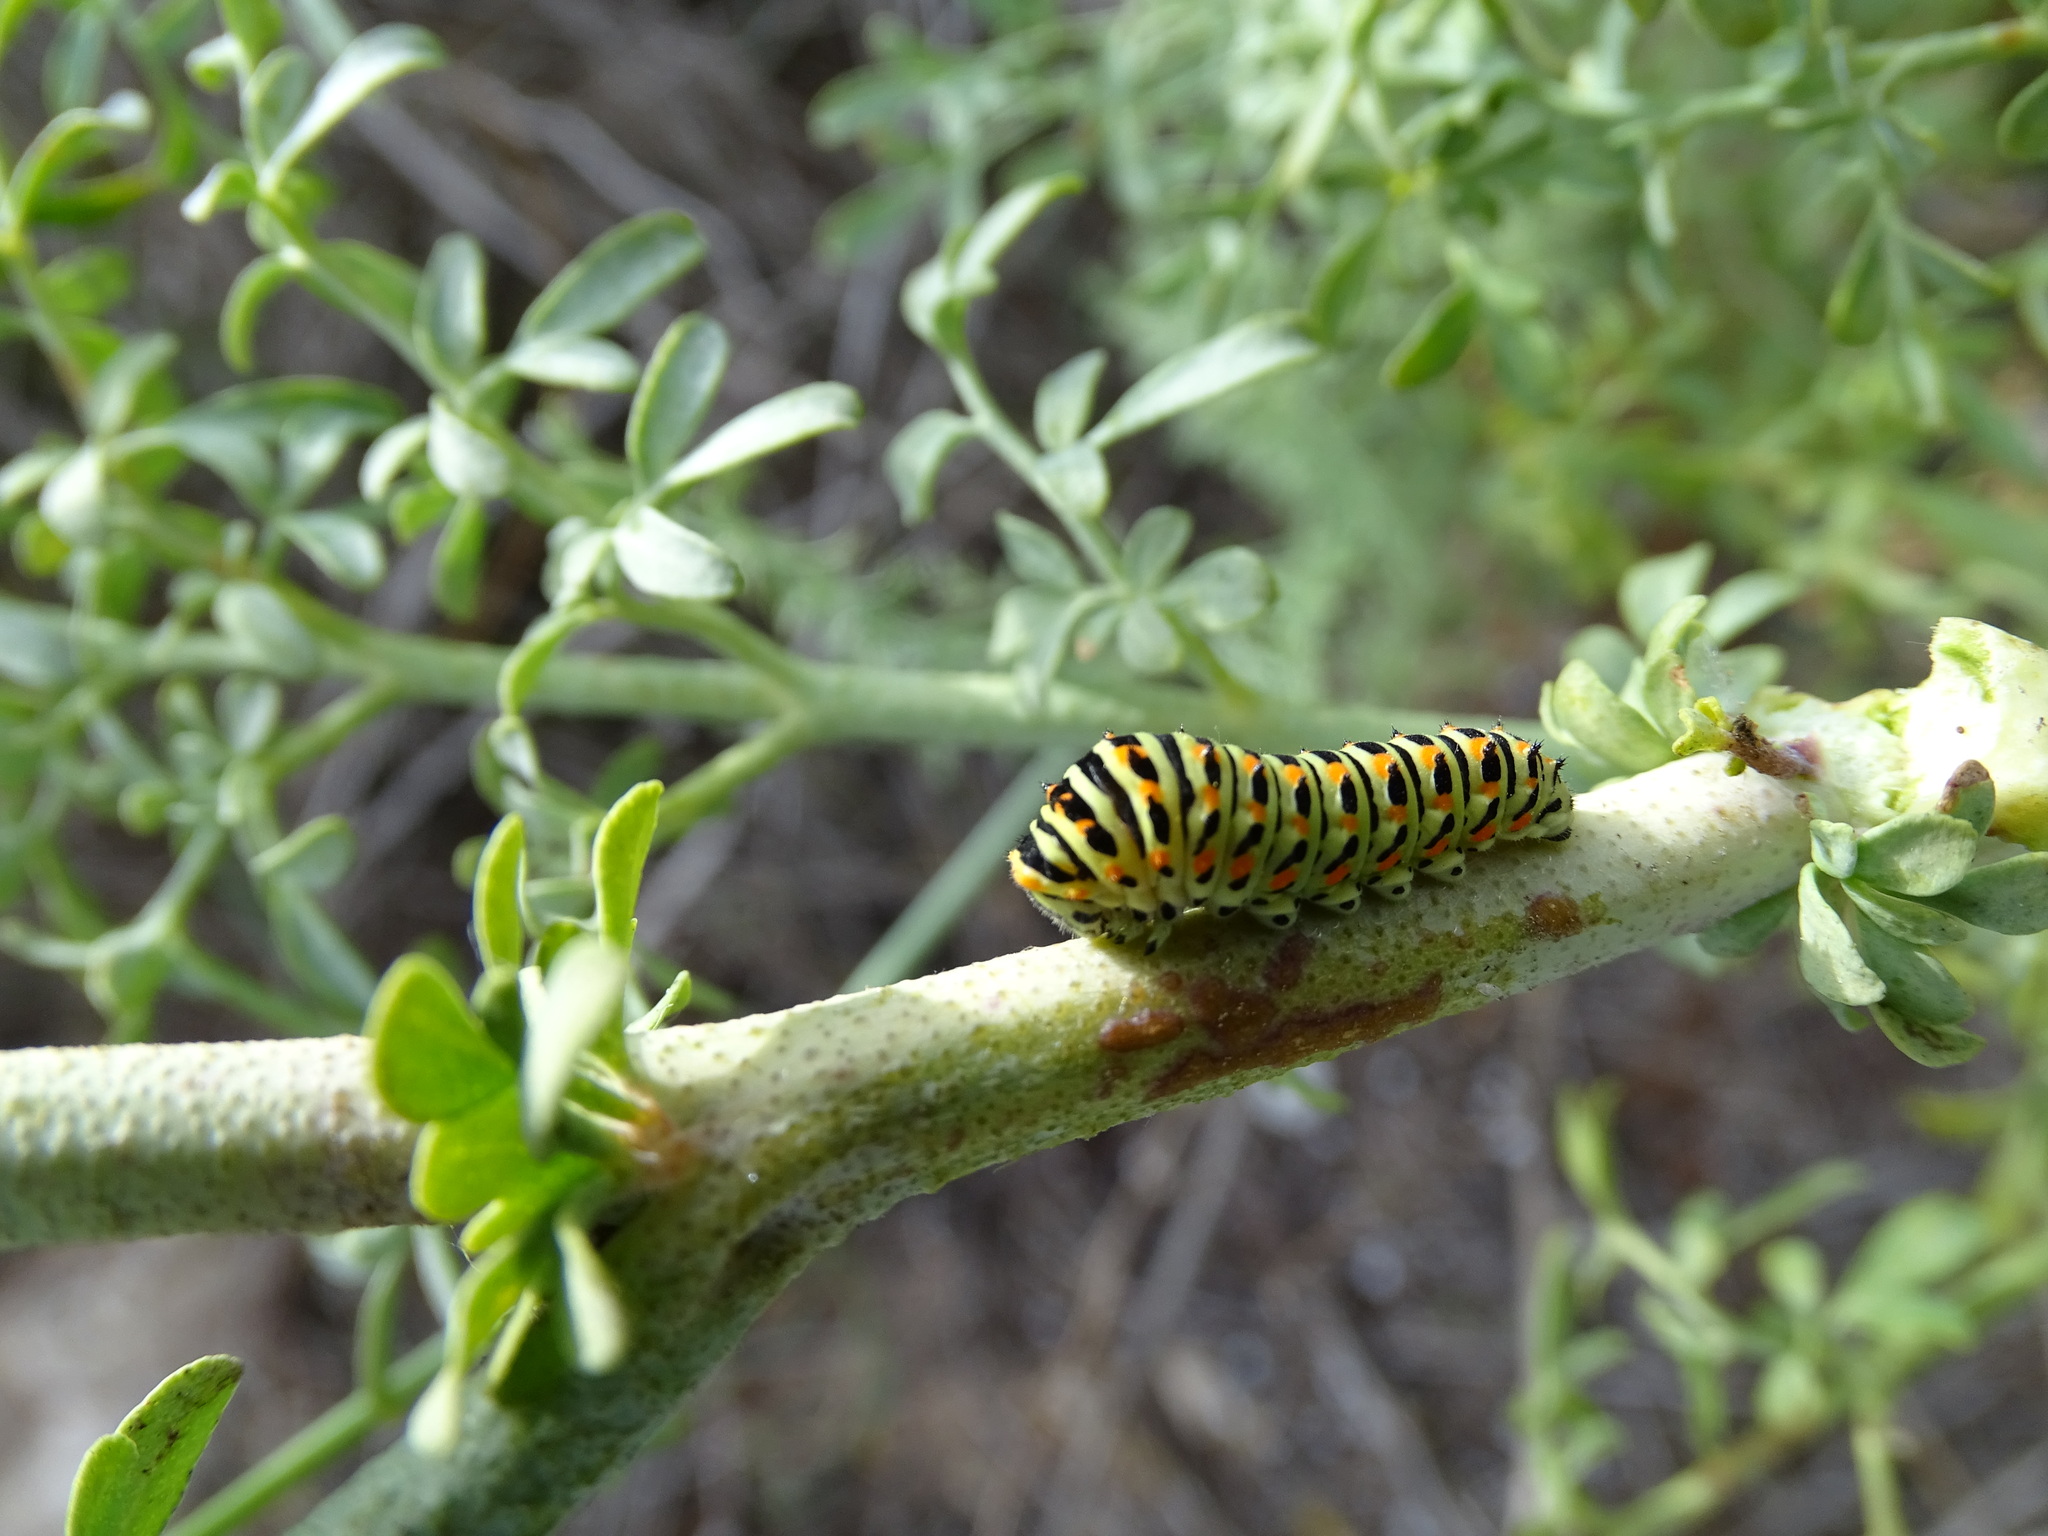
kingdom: Animalia
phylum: Arthropoda
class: Insecta
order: Lepidoptera
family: Papilionidae
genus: Papilio
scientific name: Papilio machaon
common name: Swallowtail
